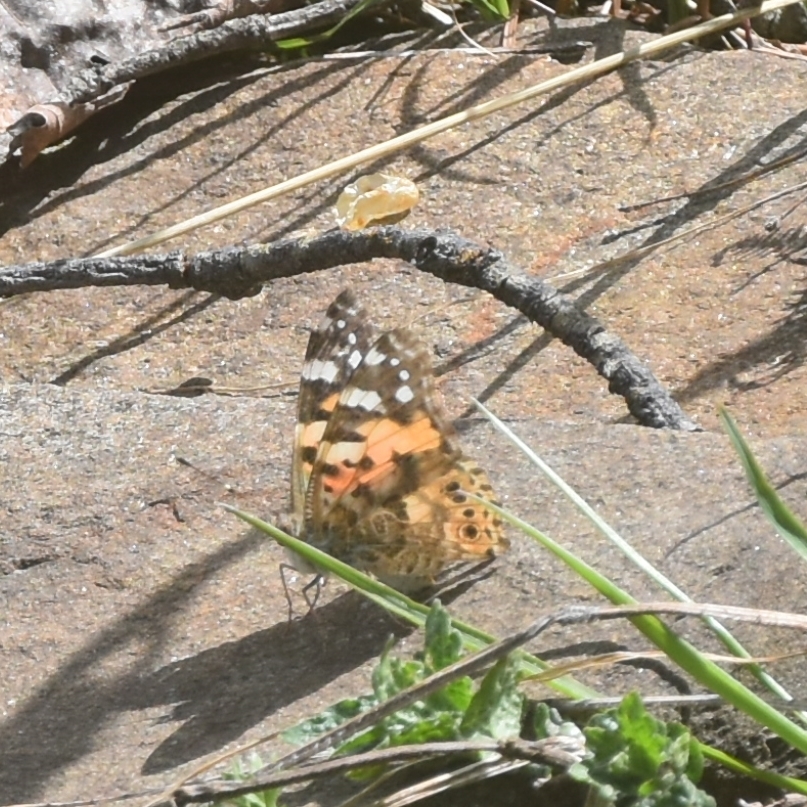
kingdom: Animalia
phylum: Arthropoda
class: Insecta
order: Lepidoptera
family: Nymphalidae
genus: Vanessa
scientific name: Vanessa cardui
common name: Painted lady
